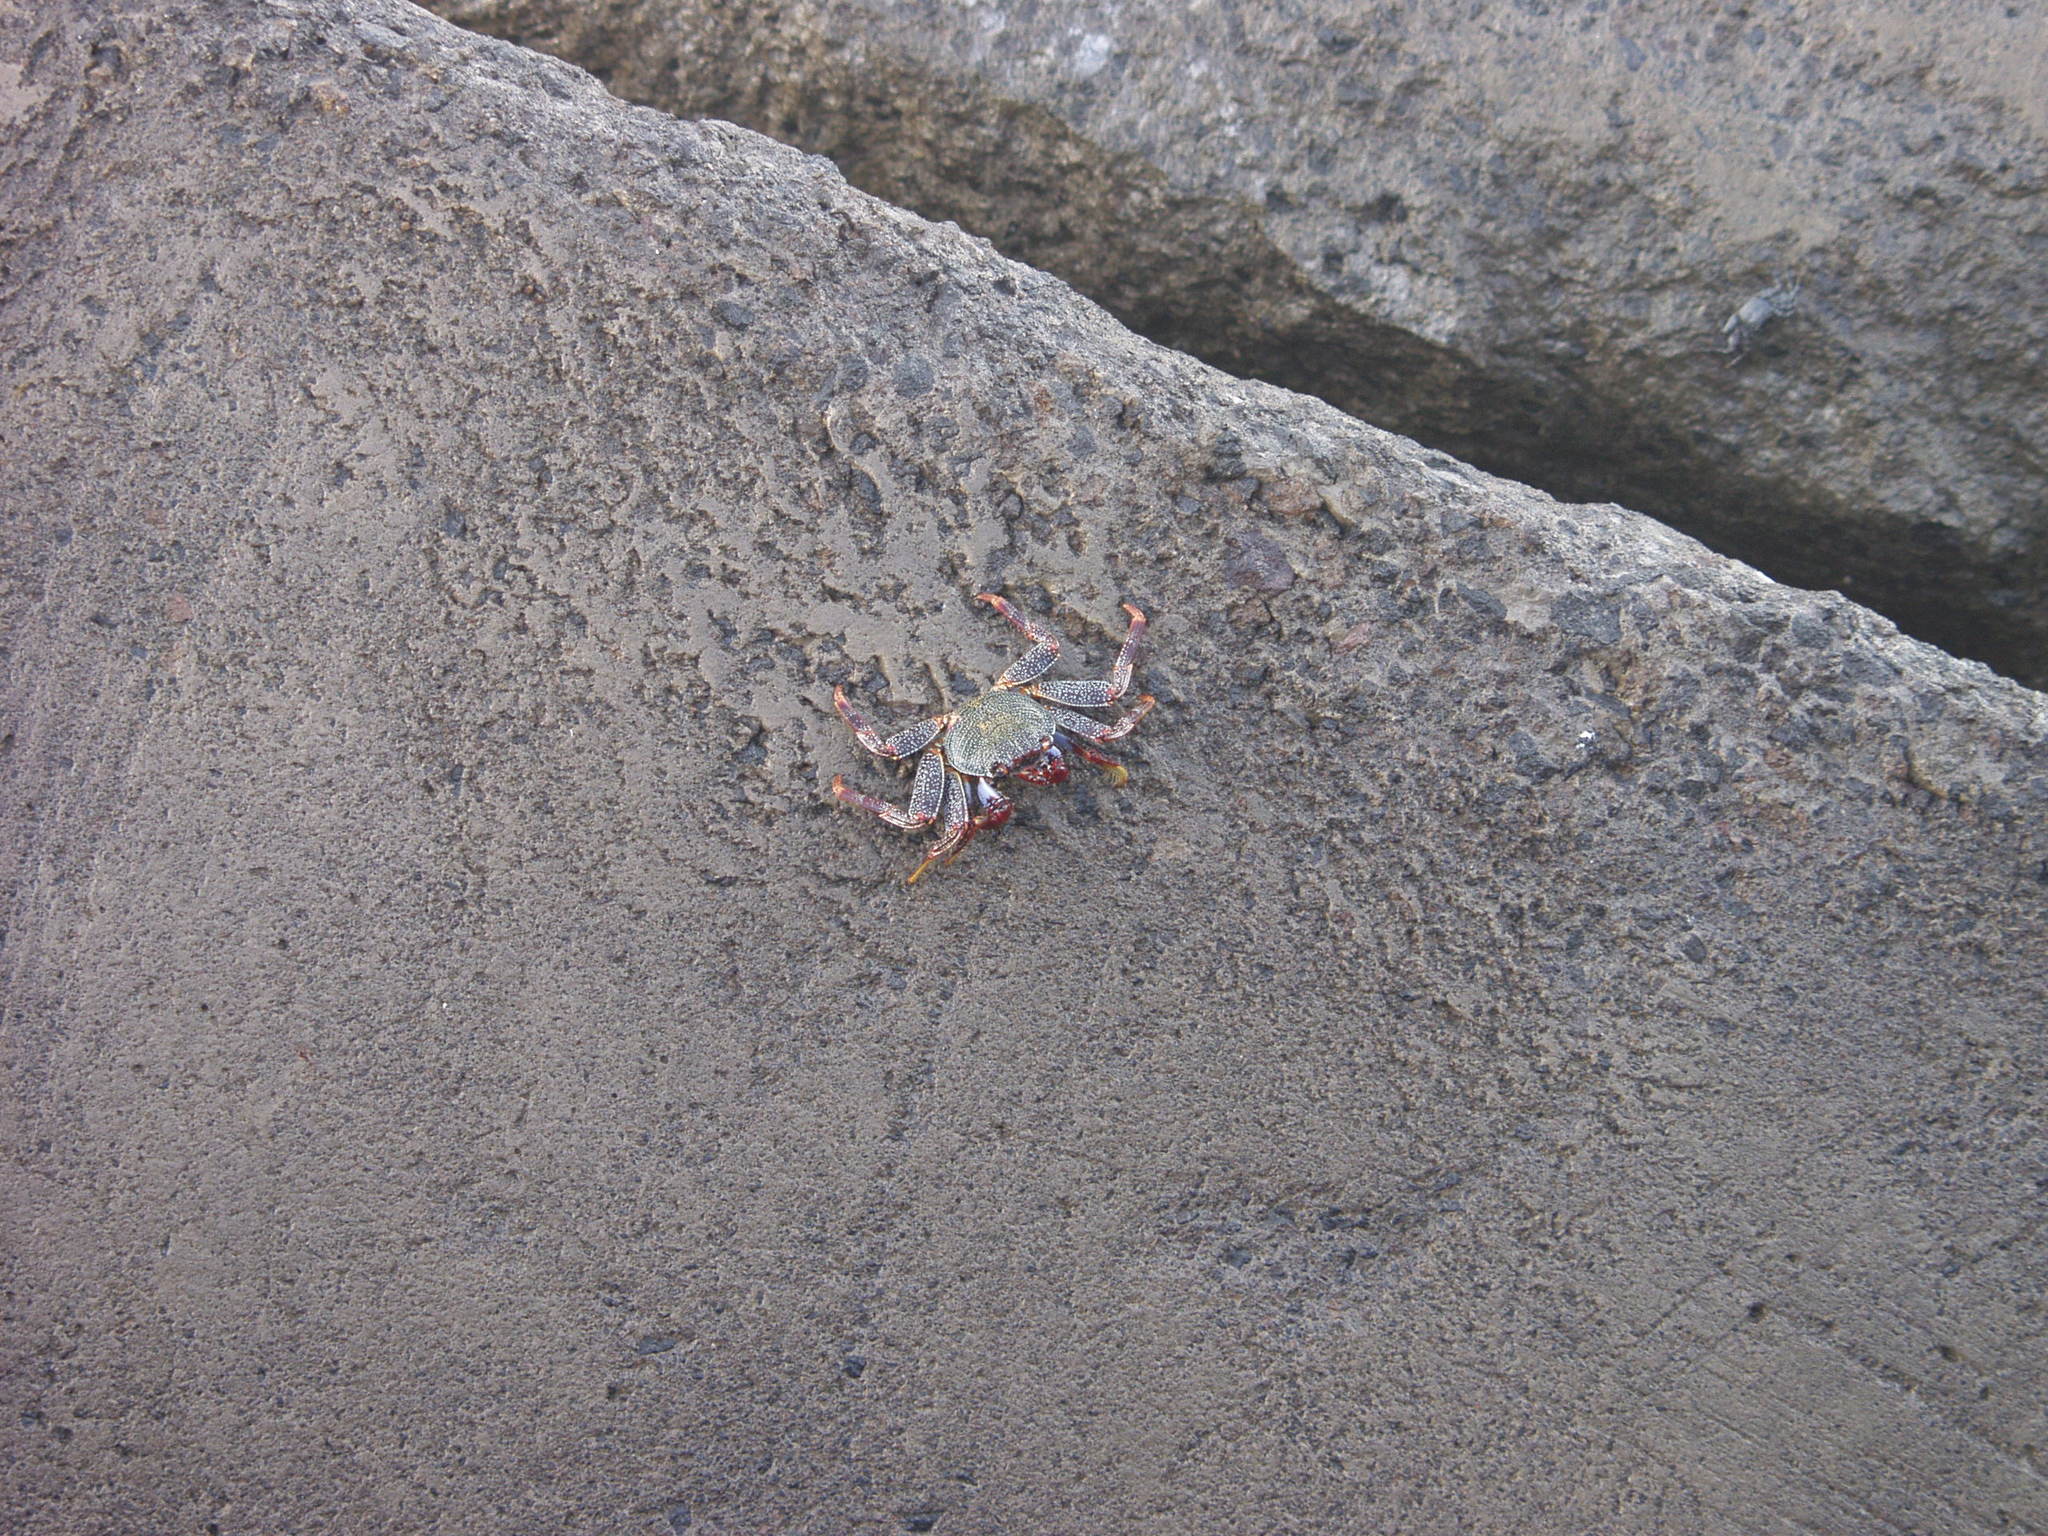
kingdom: Animalia
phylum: Arthropoda
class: Malacostraca
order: Decapoda
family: Grapsidae
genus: Grapsus
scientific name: Grapsus adscensionis
